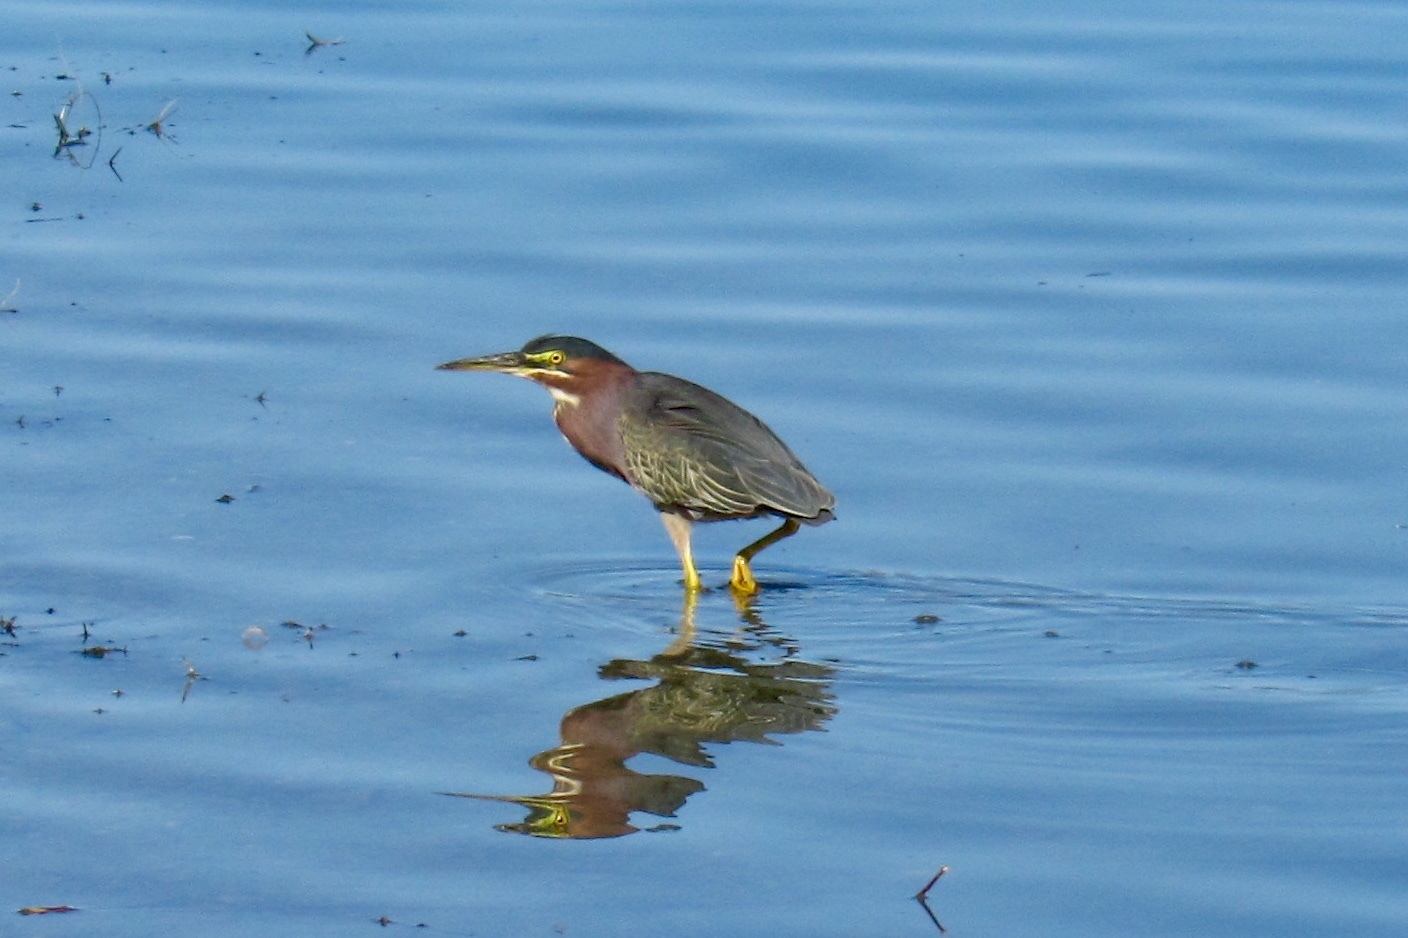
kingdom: Animalia
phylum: Chordata
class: Aves
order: Pelecaniformes
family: Ardeidae
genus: Butorides
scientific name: Butorides virescens
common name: Green heron
